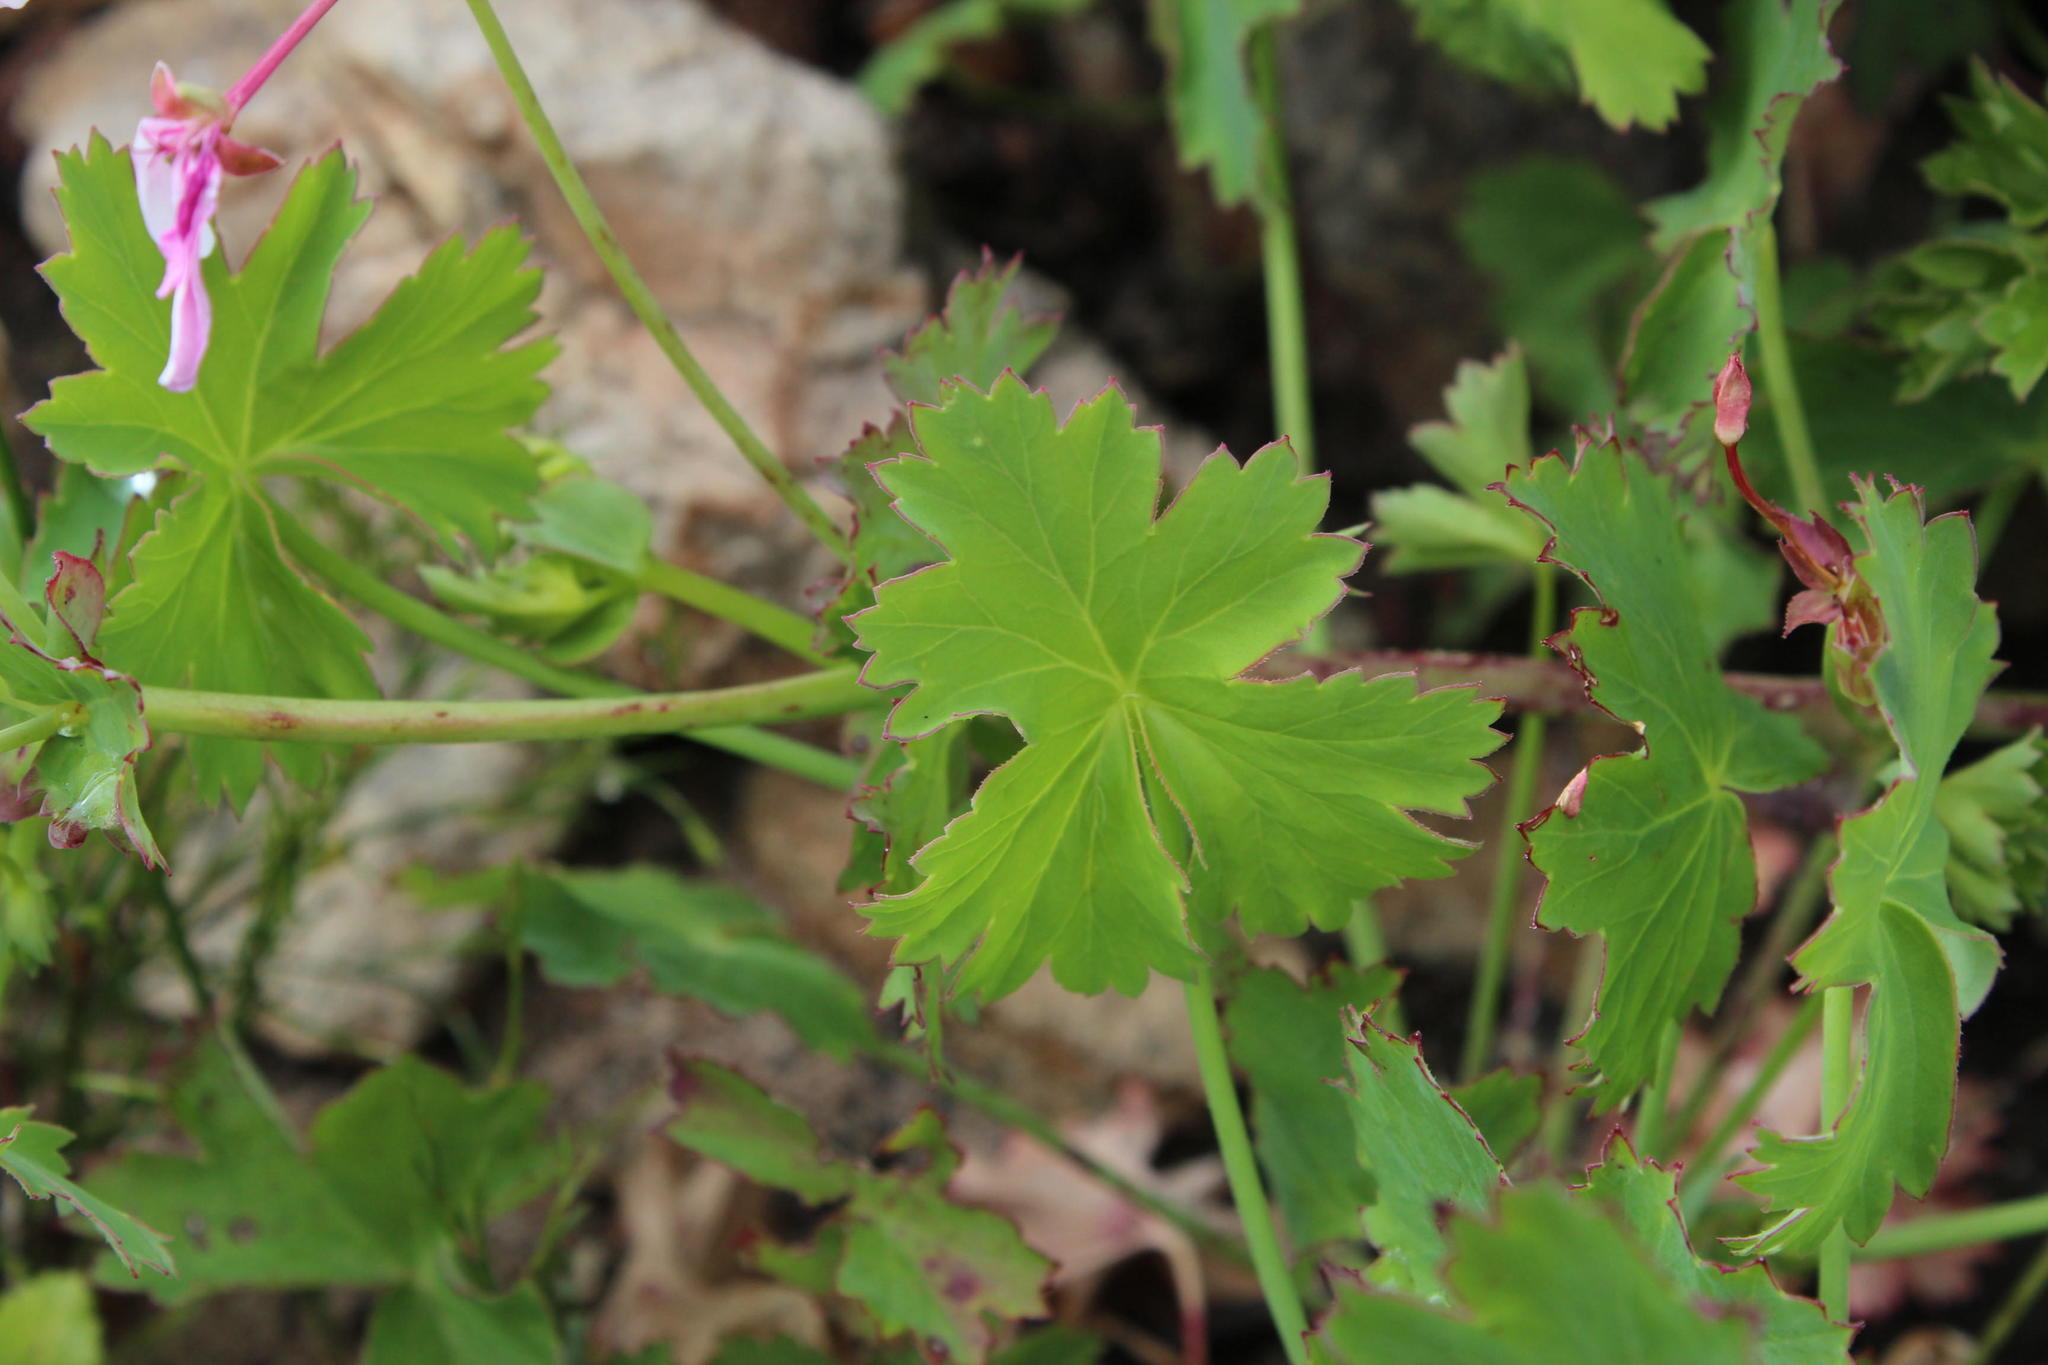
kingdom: Plantae
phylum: Tracheophyta
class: Magnoliopsida
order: Geraniales
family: Geraniaceae
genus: Pelargonium
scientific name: Pelargonium patulum
